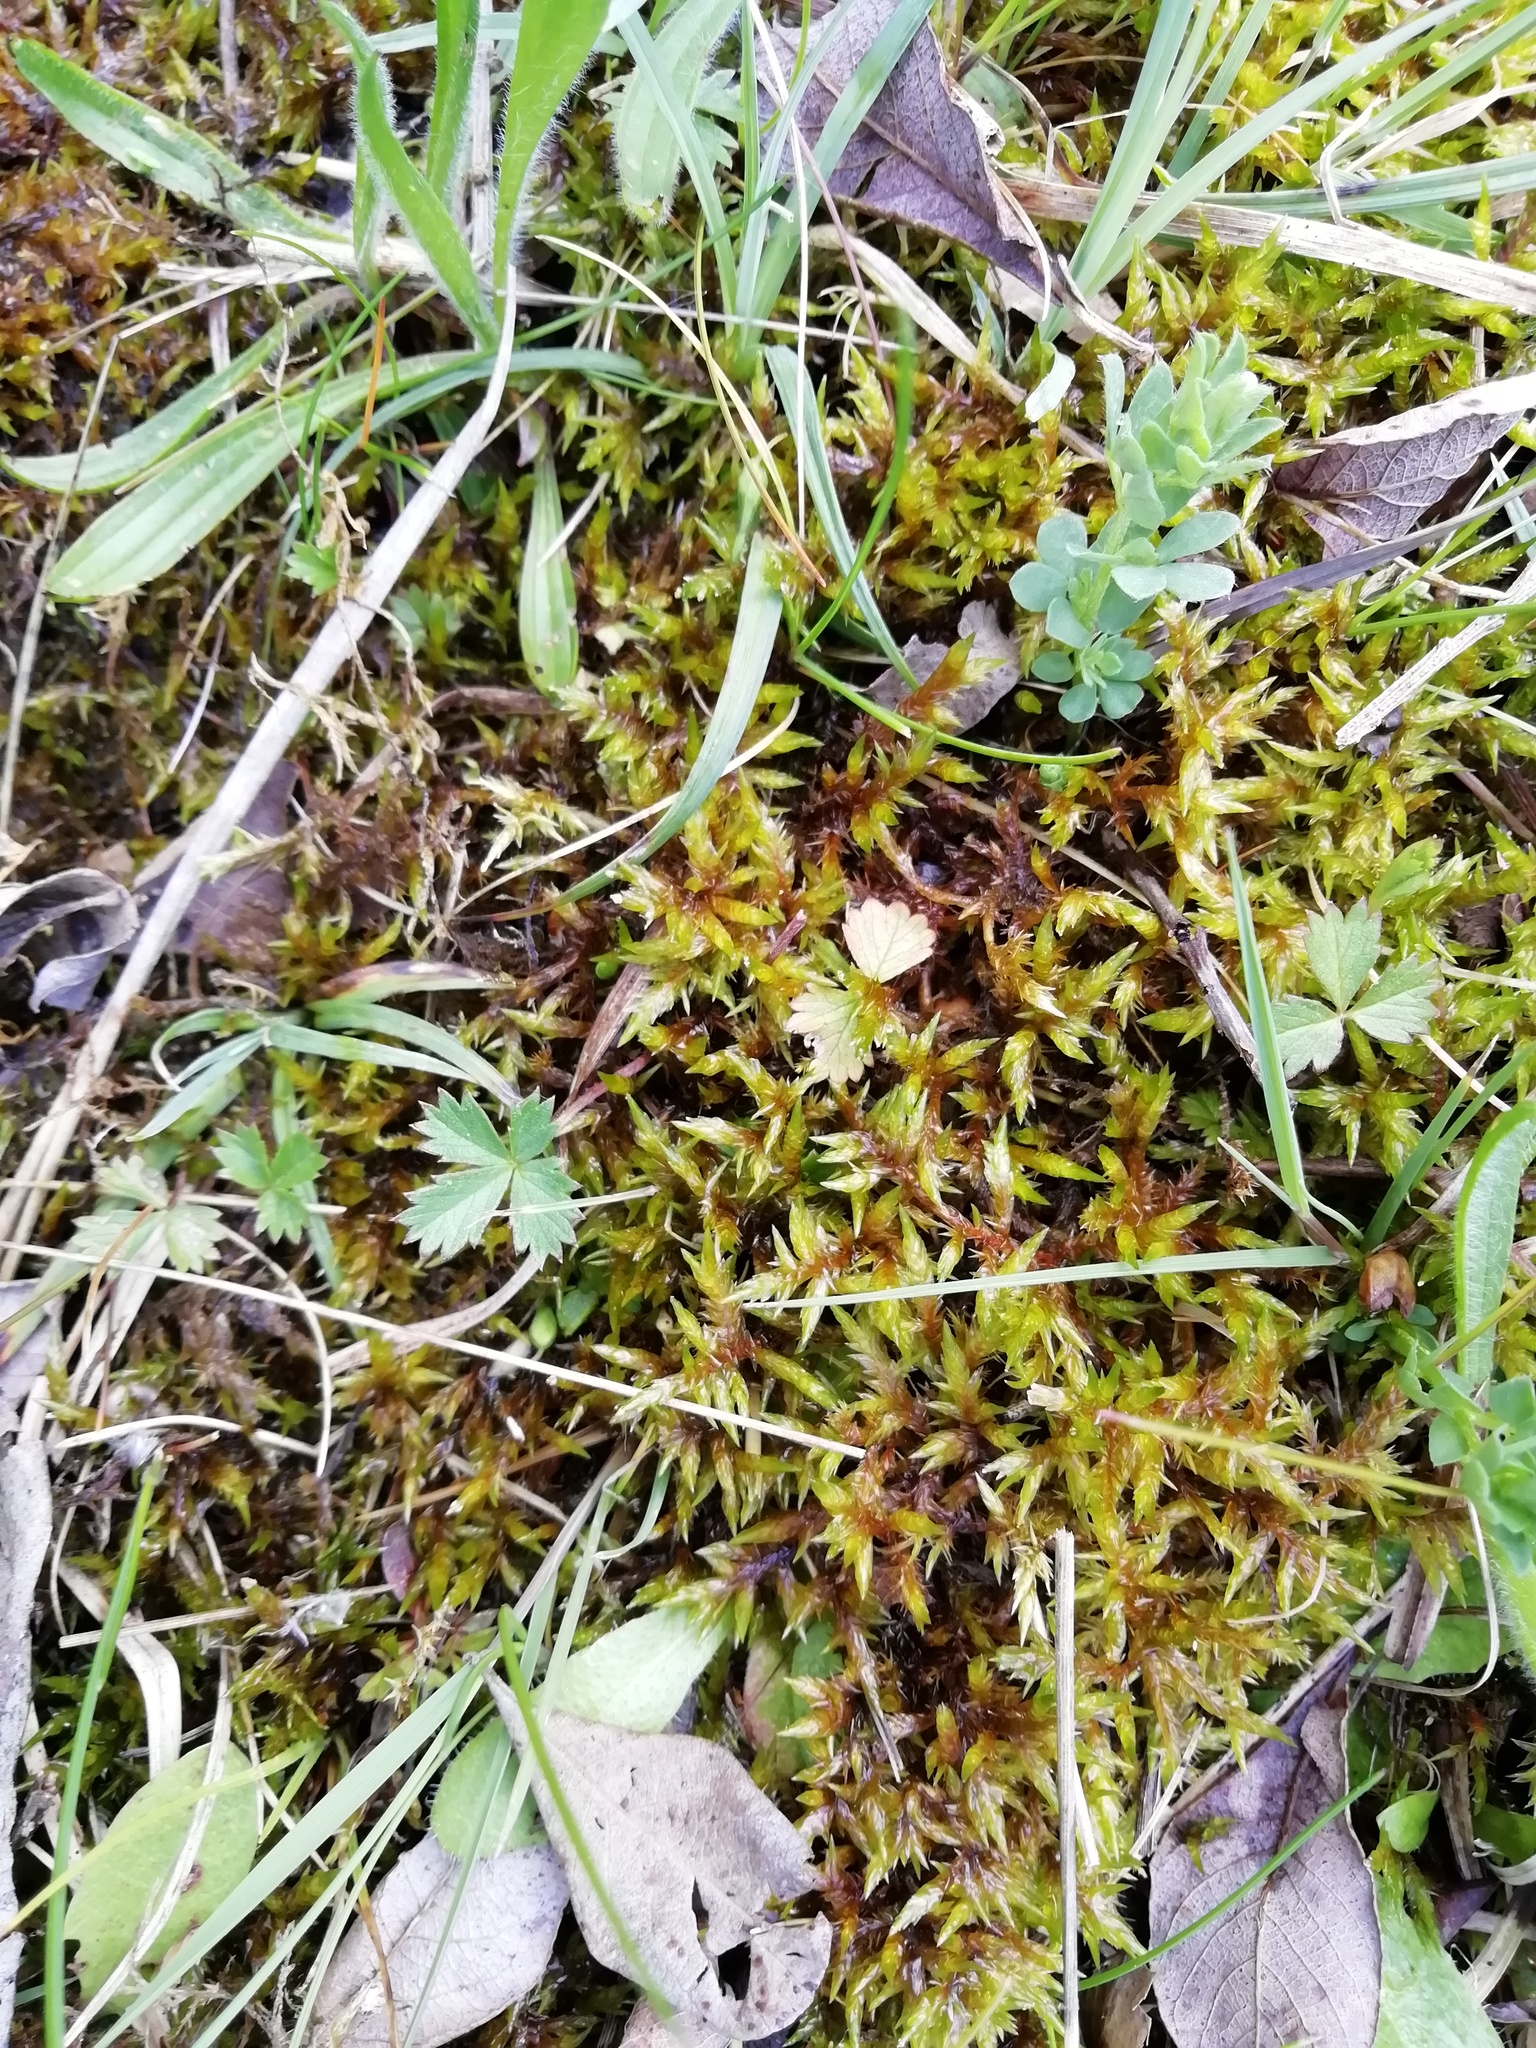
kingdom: Plantae
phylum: Bryophyta
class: Bryopsida
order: Hypnales
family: Pylaisiaceae
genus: Calliergonella
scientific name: Calliergonella cuspidata
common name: Common large wetland moss
